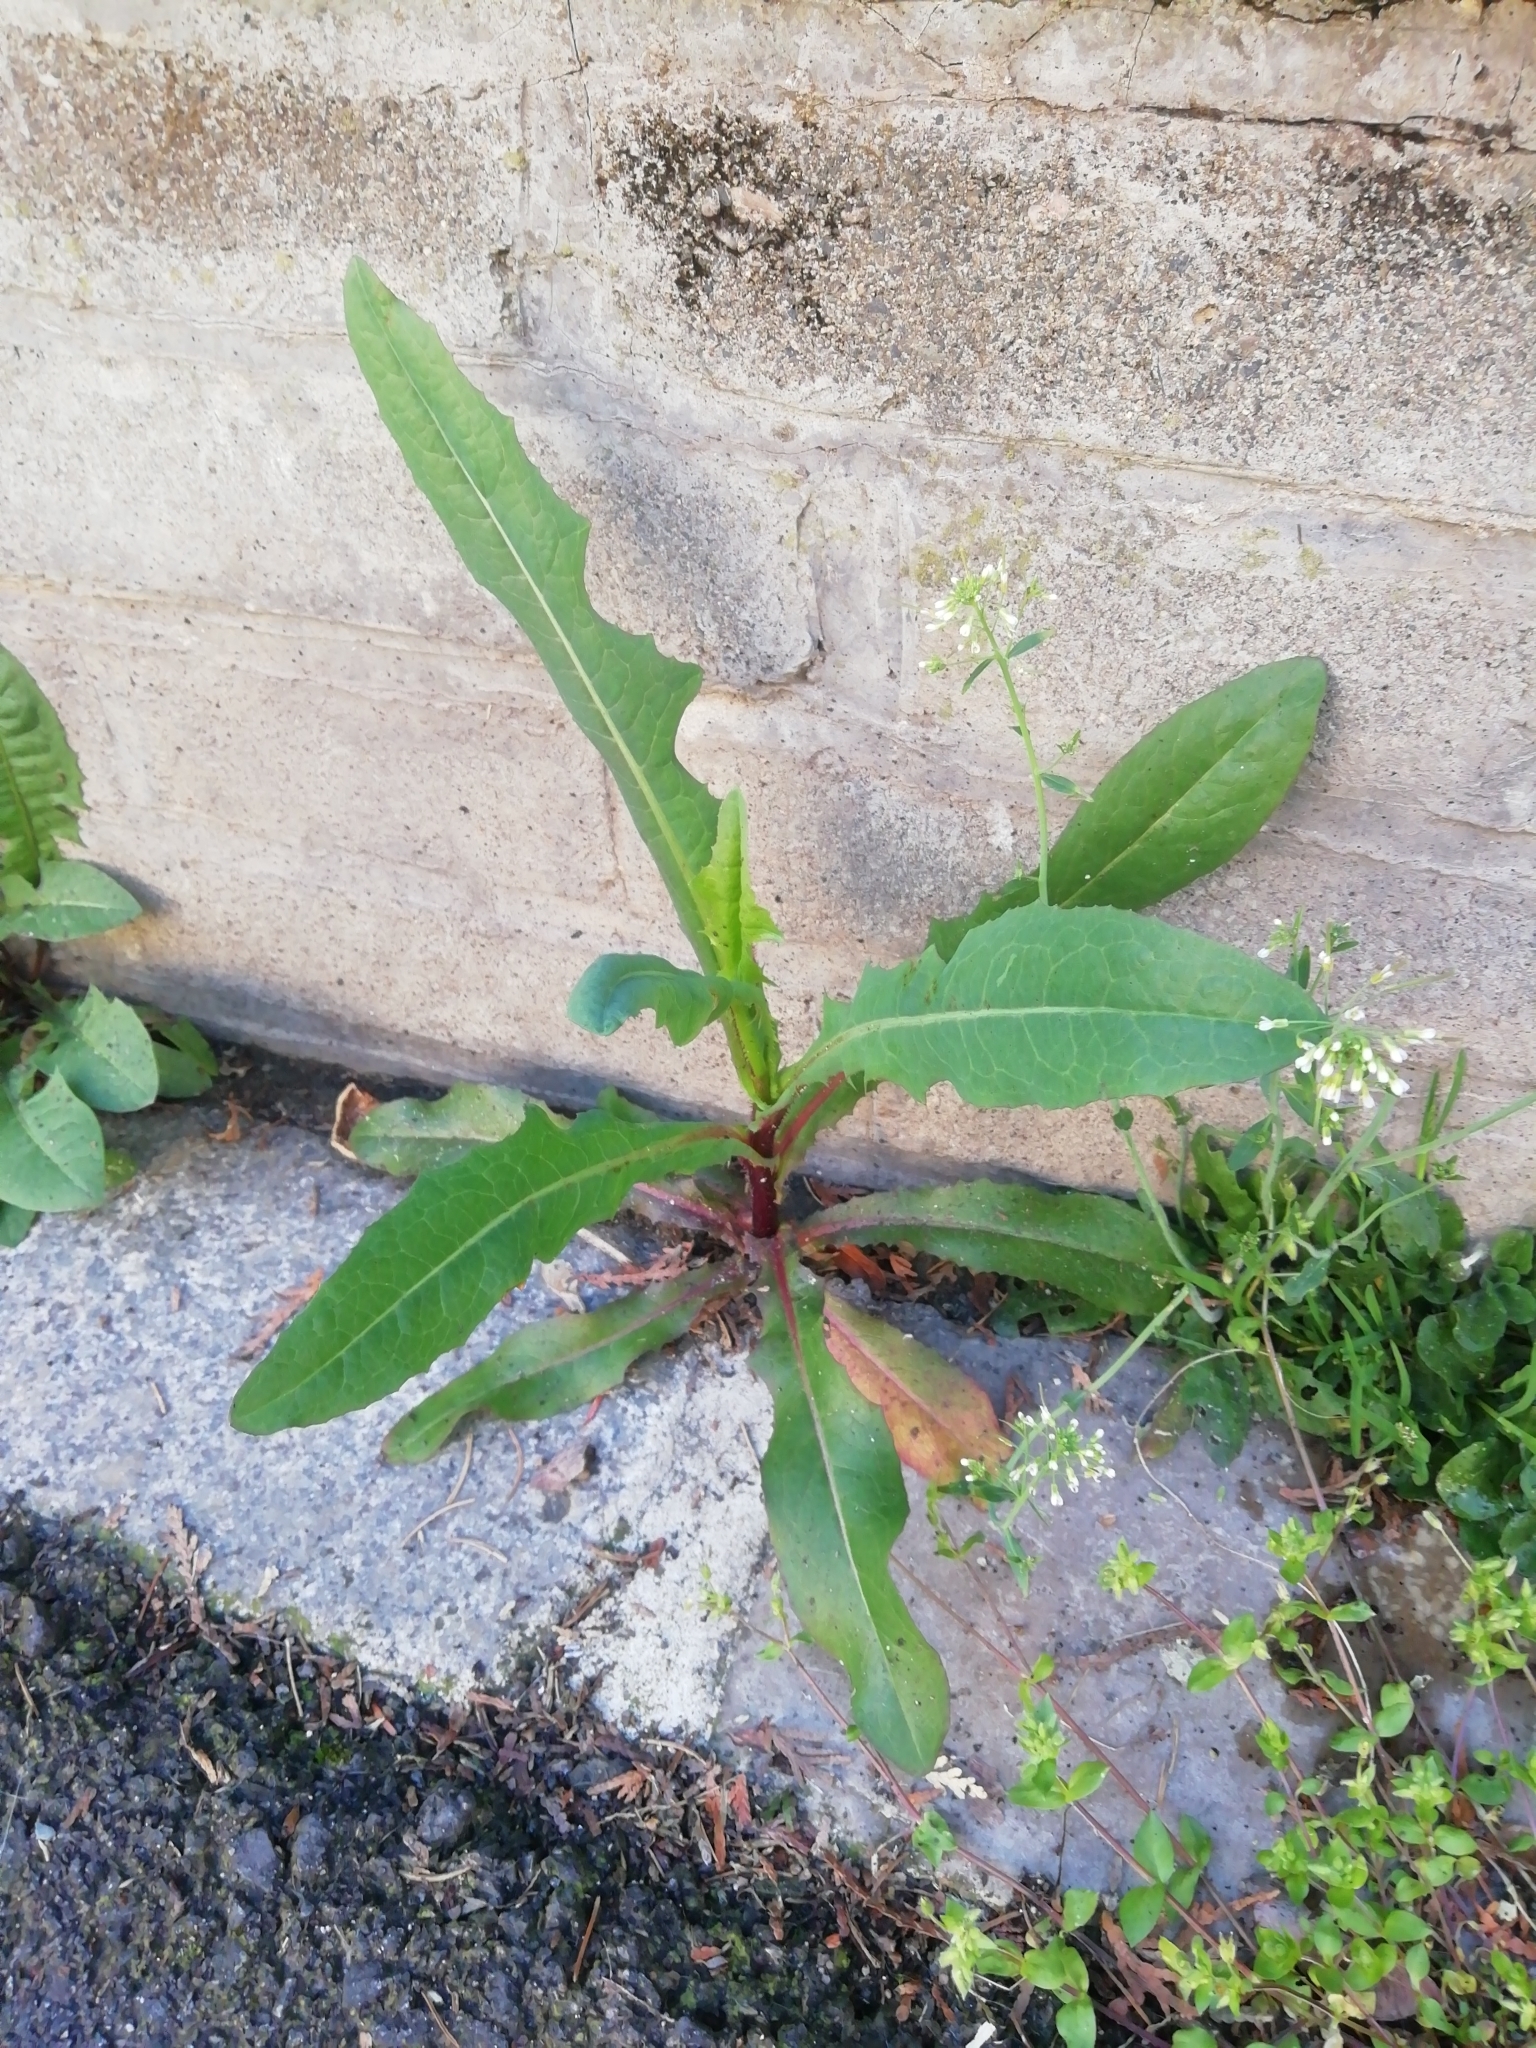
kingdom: Plantae
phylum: Tracheophyta
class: Magnoliopsida
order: Asterales
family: Asteraceae
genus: Lactuca
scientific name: Lactuca serriola
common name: Prickly lettuce
